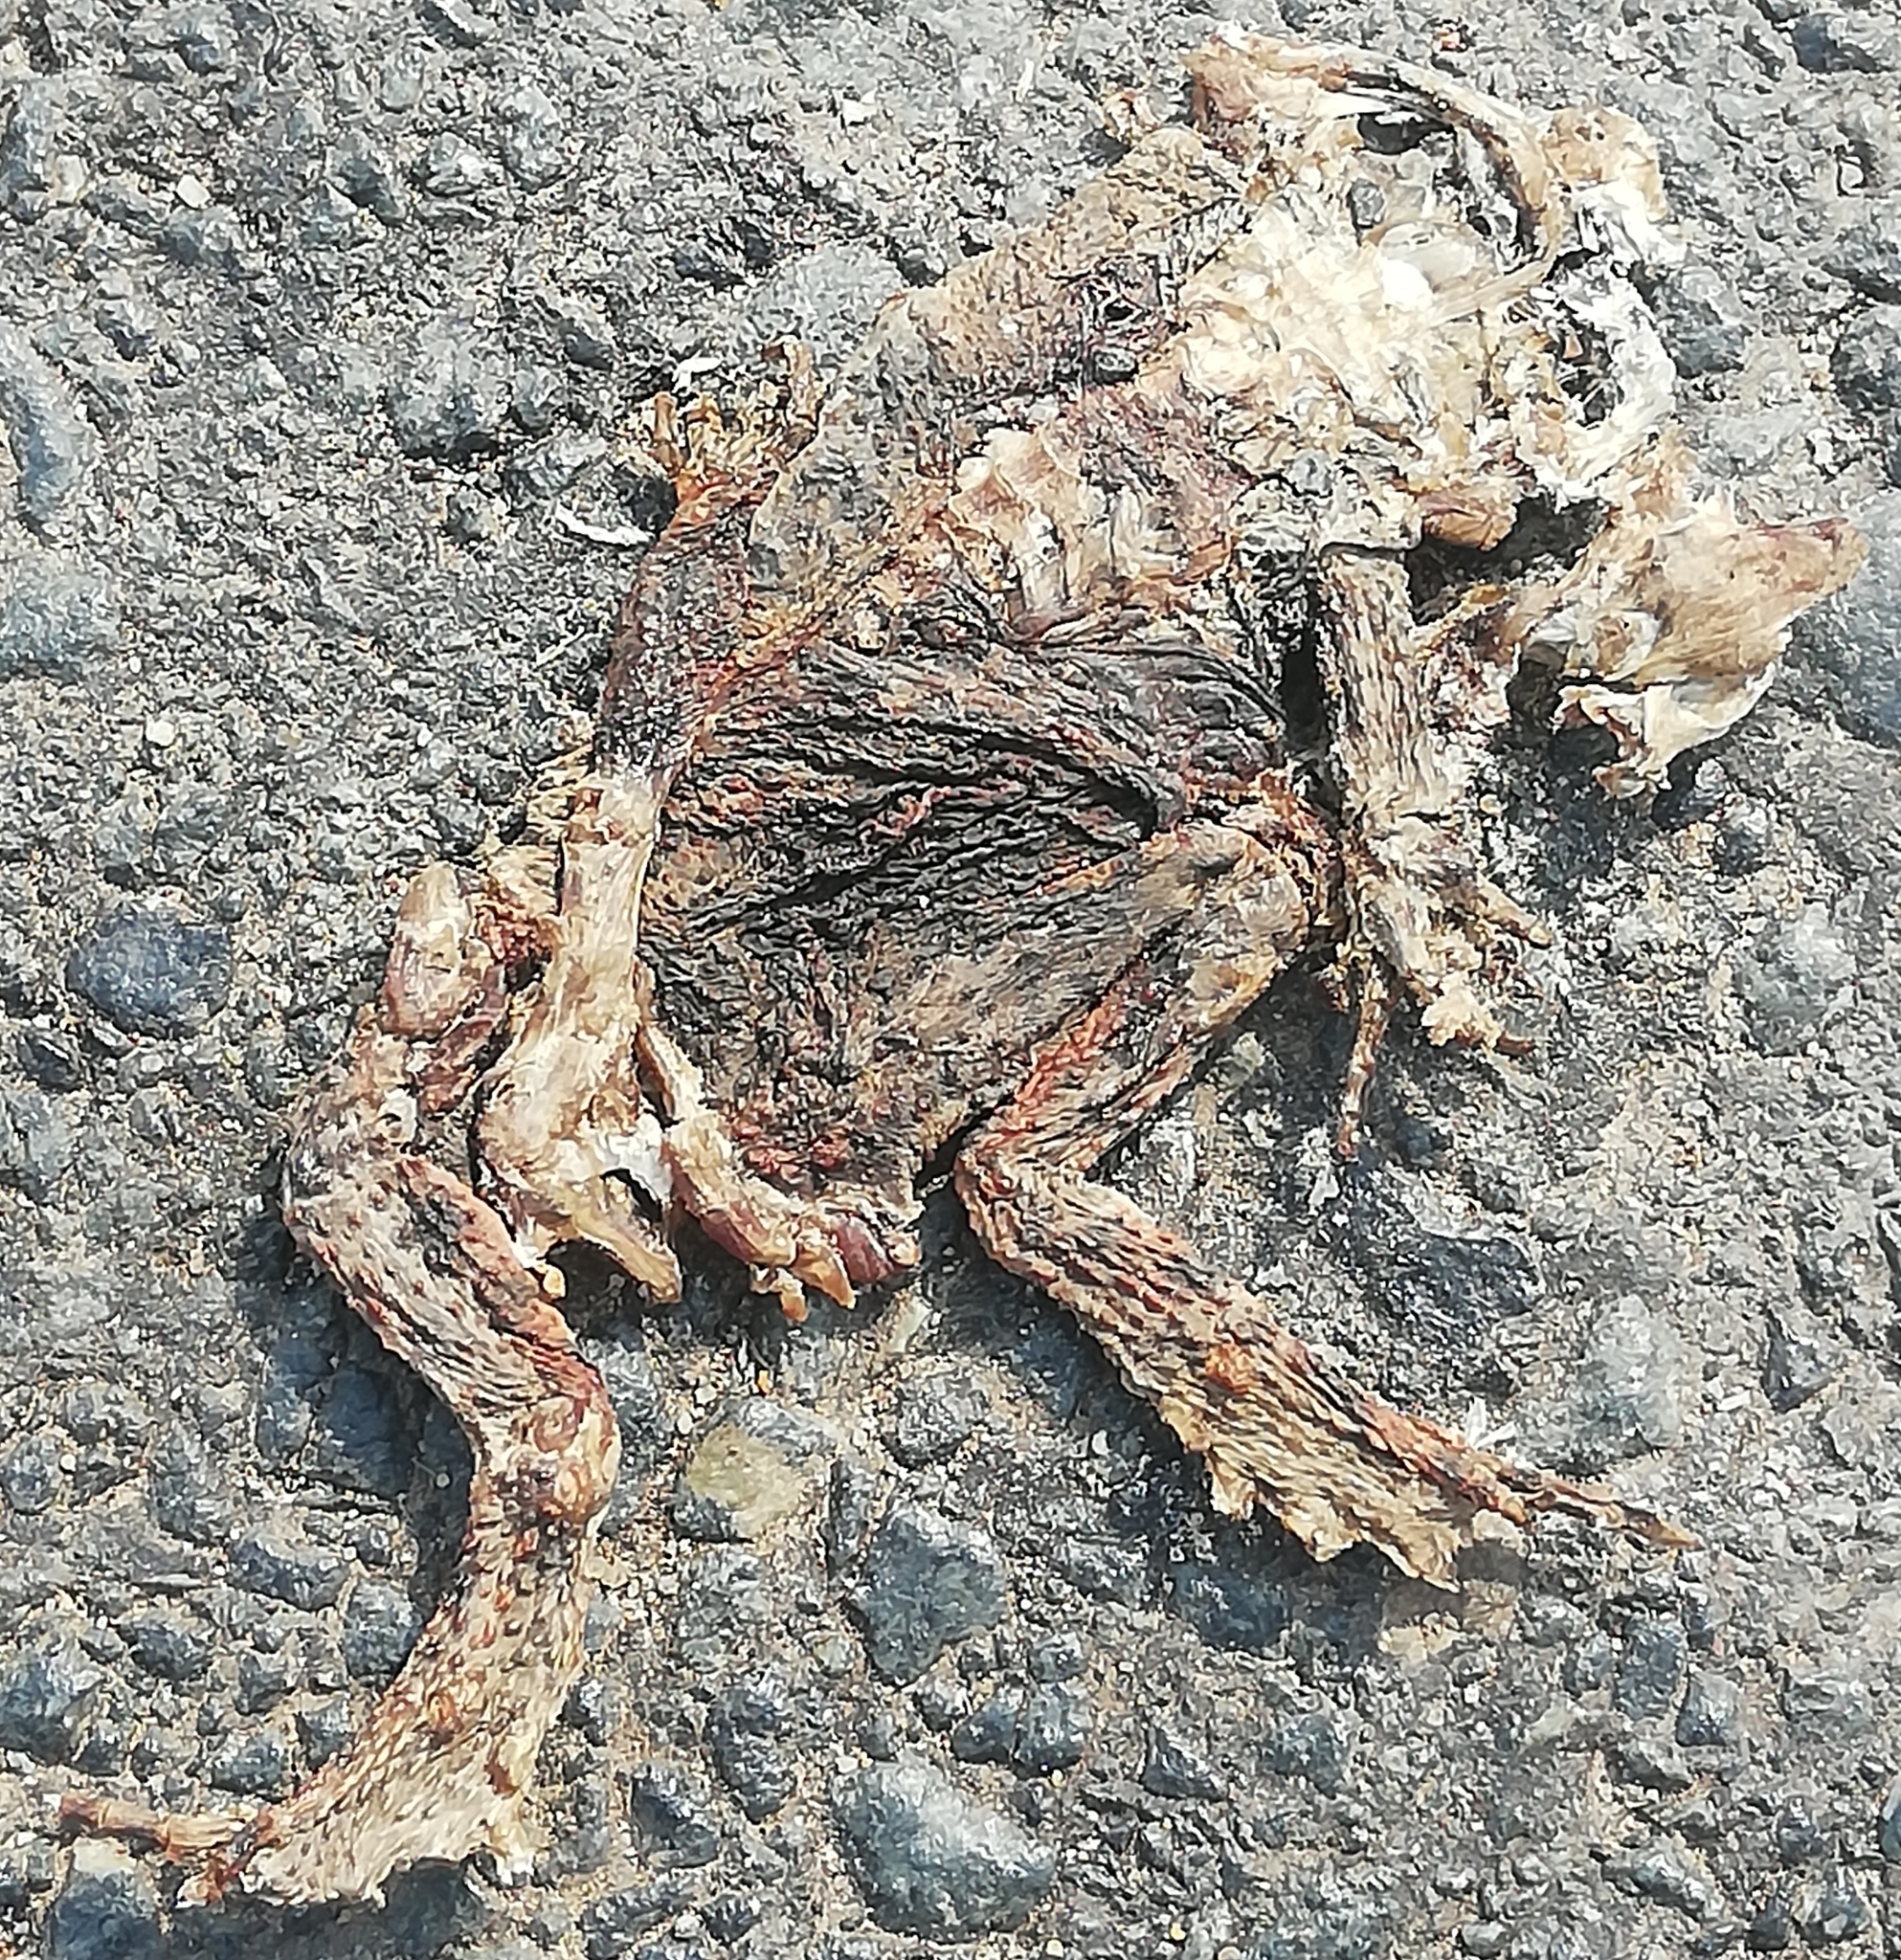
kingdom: Animalia
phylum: Chordata
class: Amphibia
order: Anura
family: Bufonidae
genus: Bufo
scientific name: Bufo bufo
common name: Common toad
